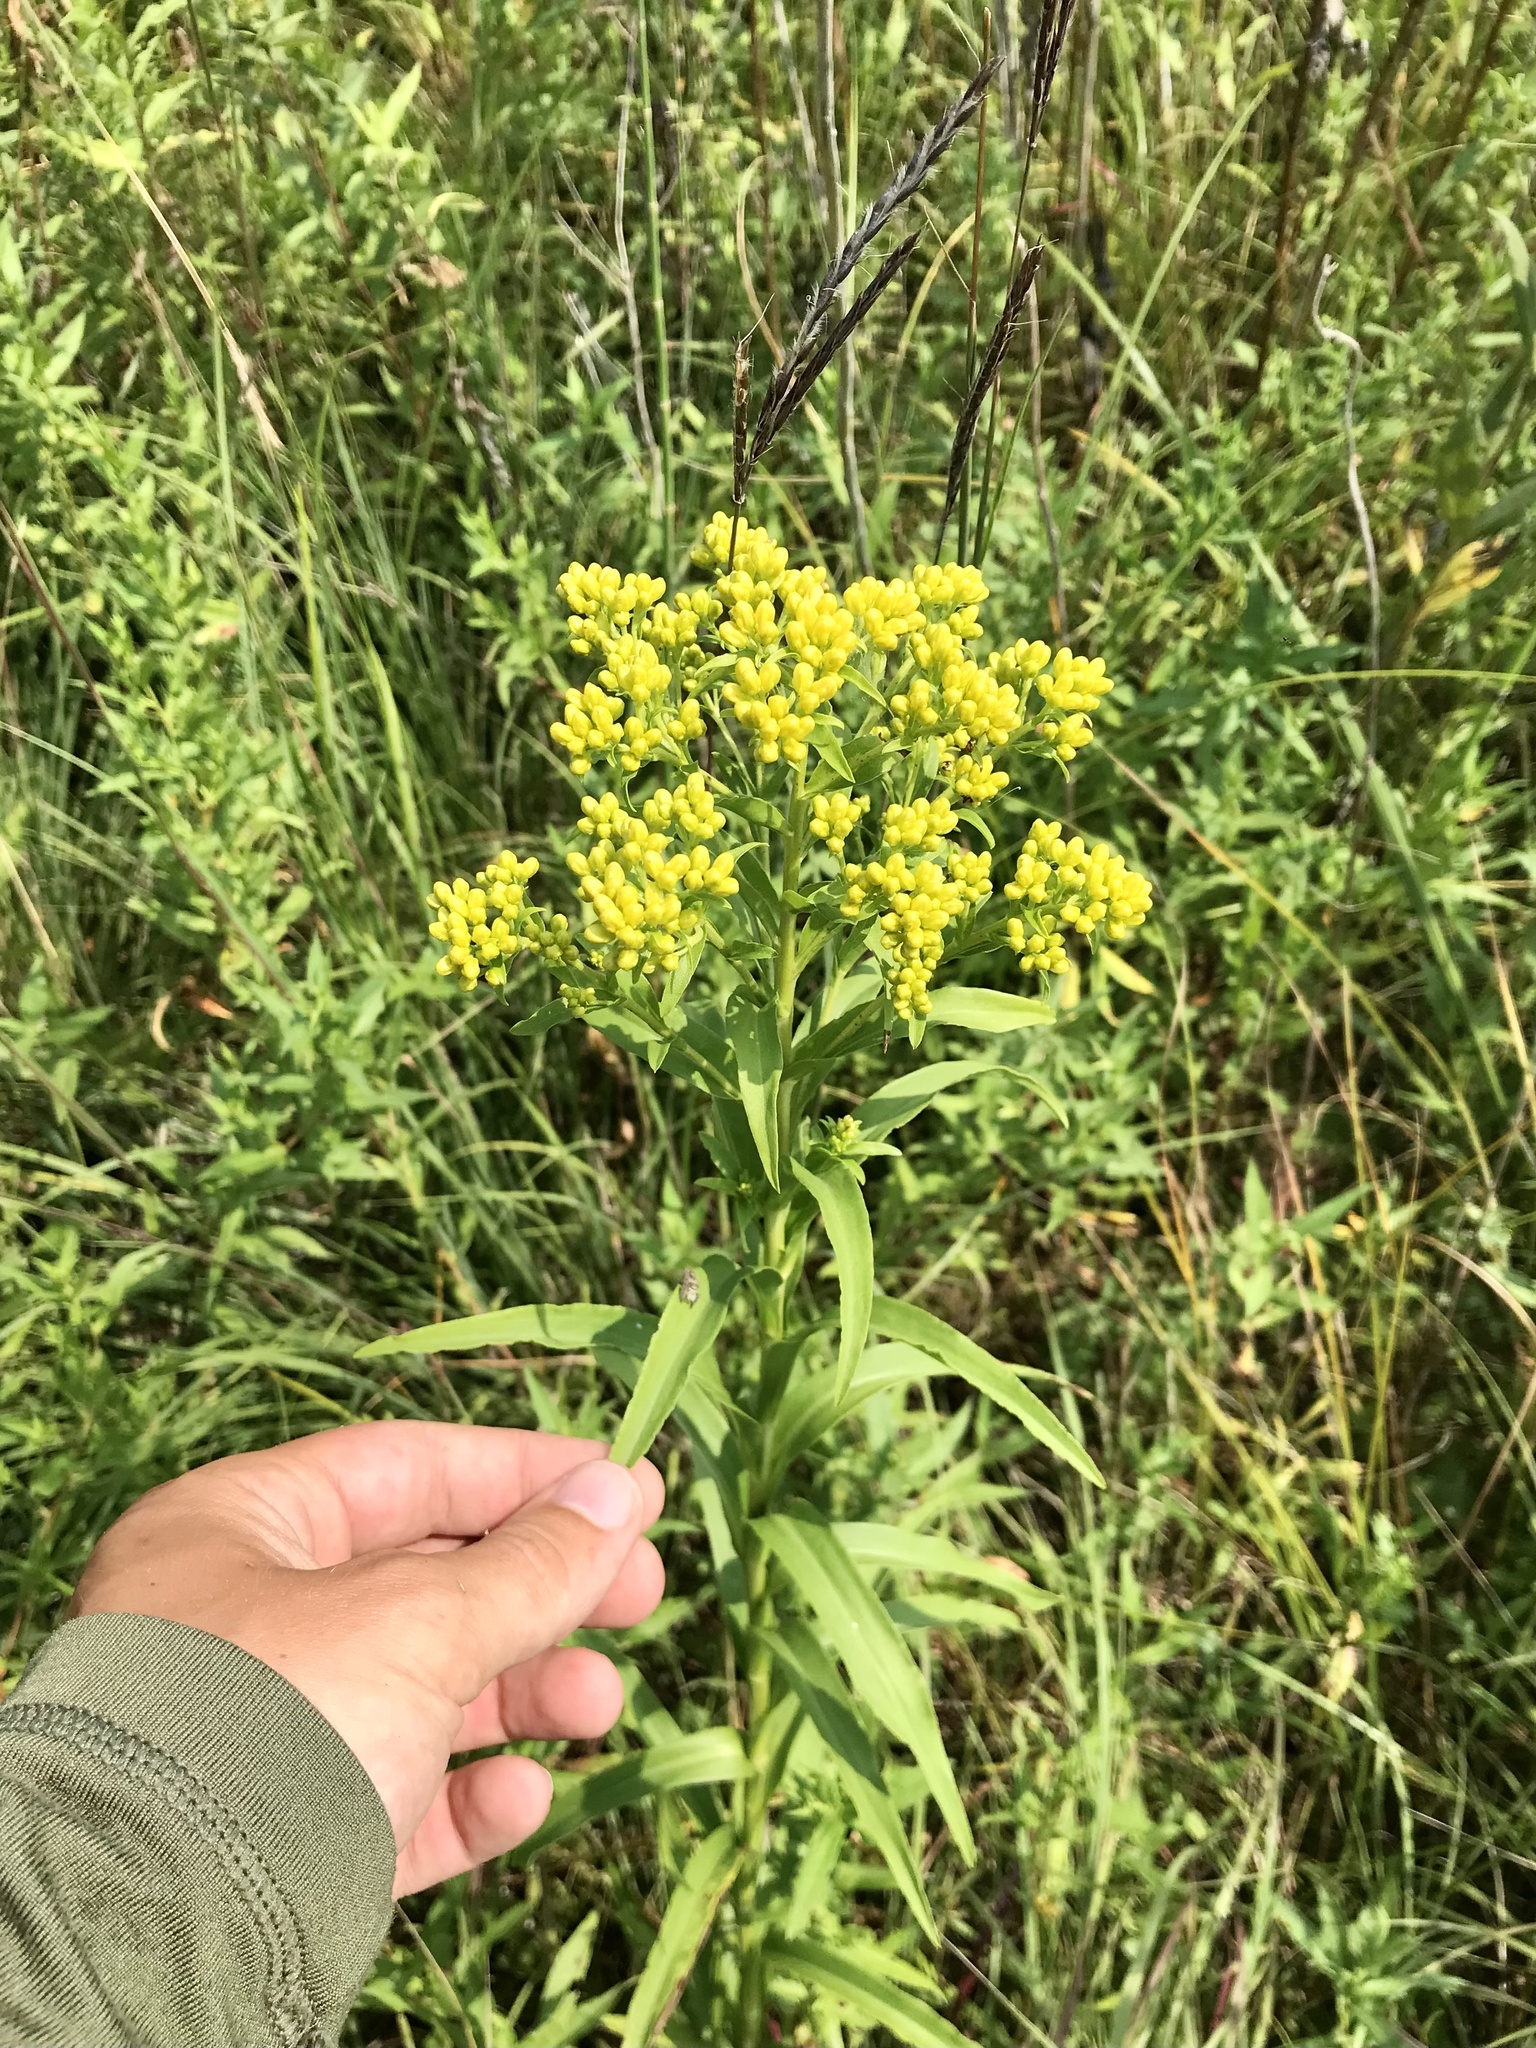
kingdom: Plantae
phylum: Tracheophyta
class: Magnoliopsida
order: Asterales
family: Asteraceae
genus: Solidago
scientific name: Solidago riddellii
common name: Riddell's goldenrod
